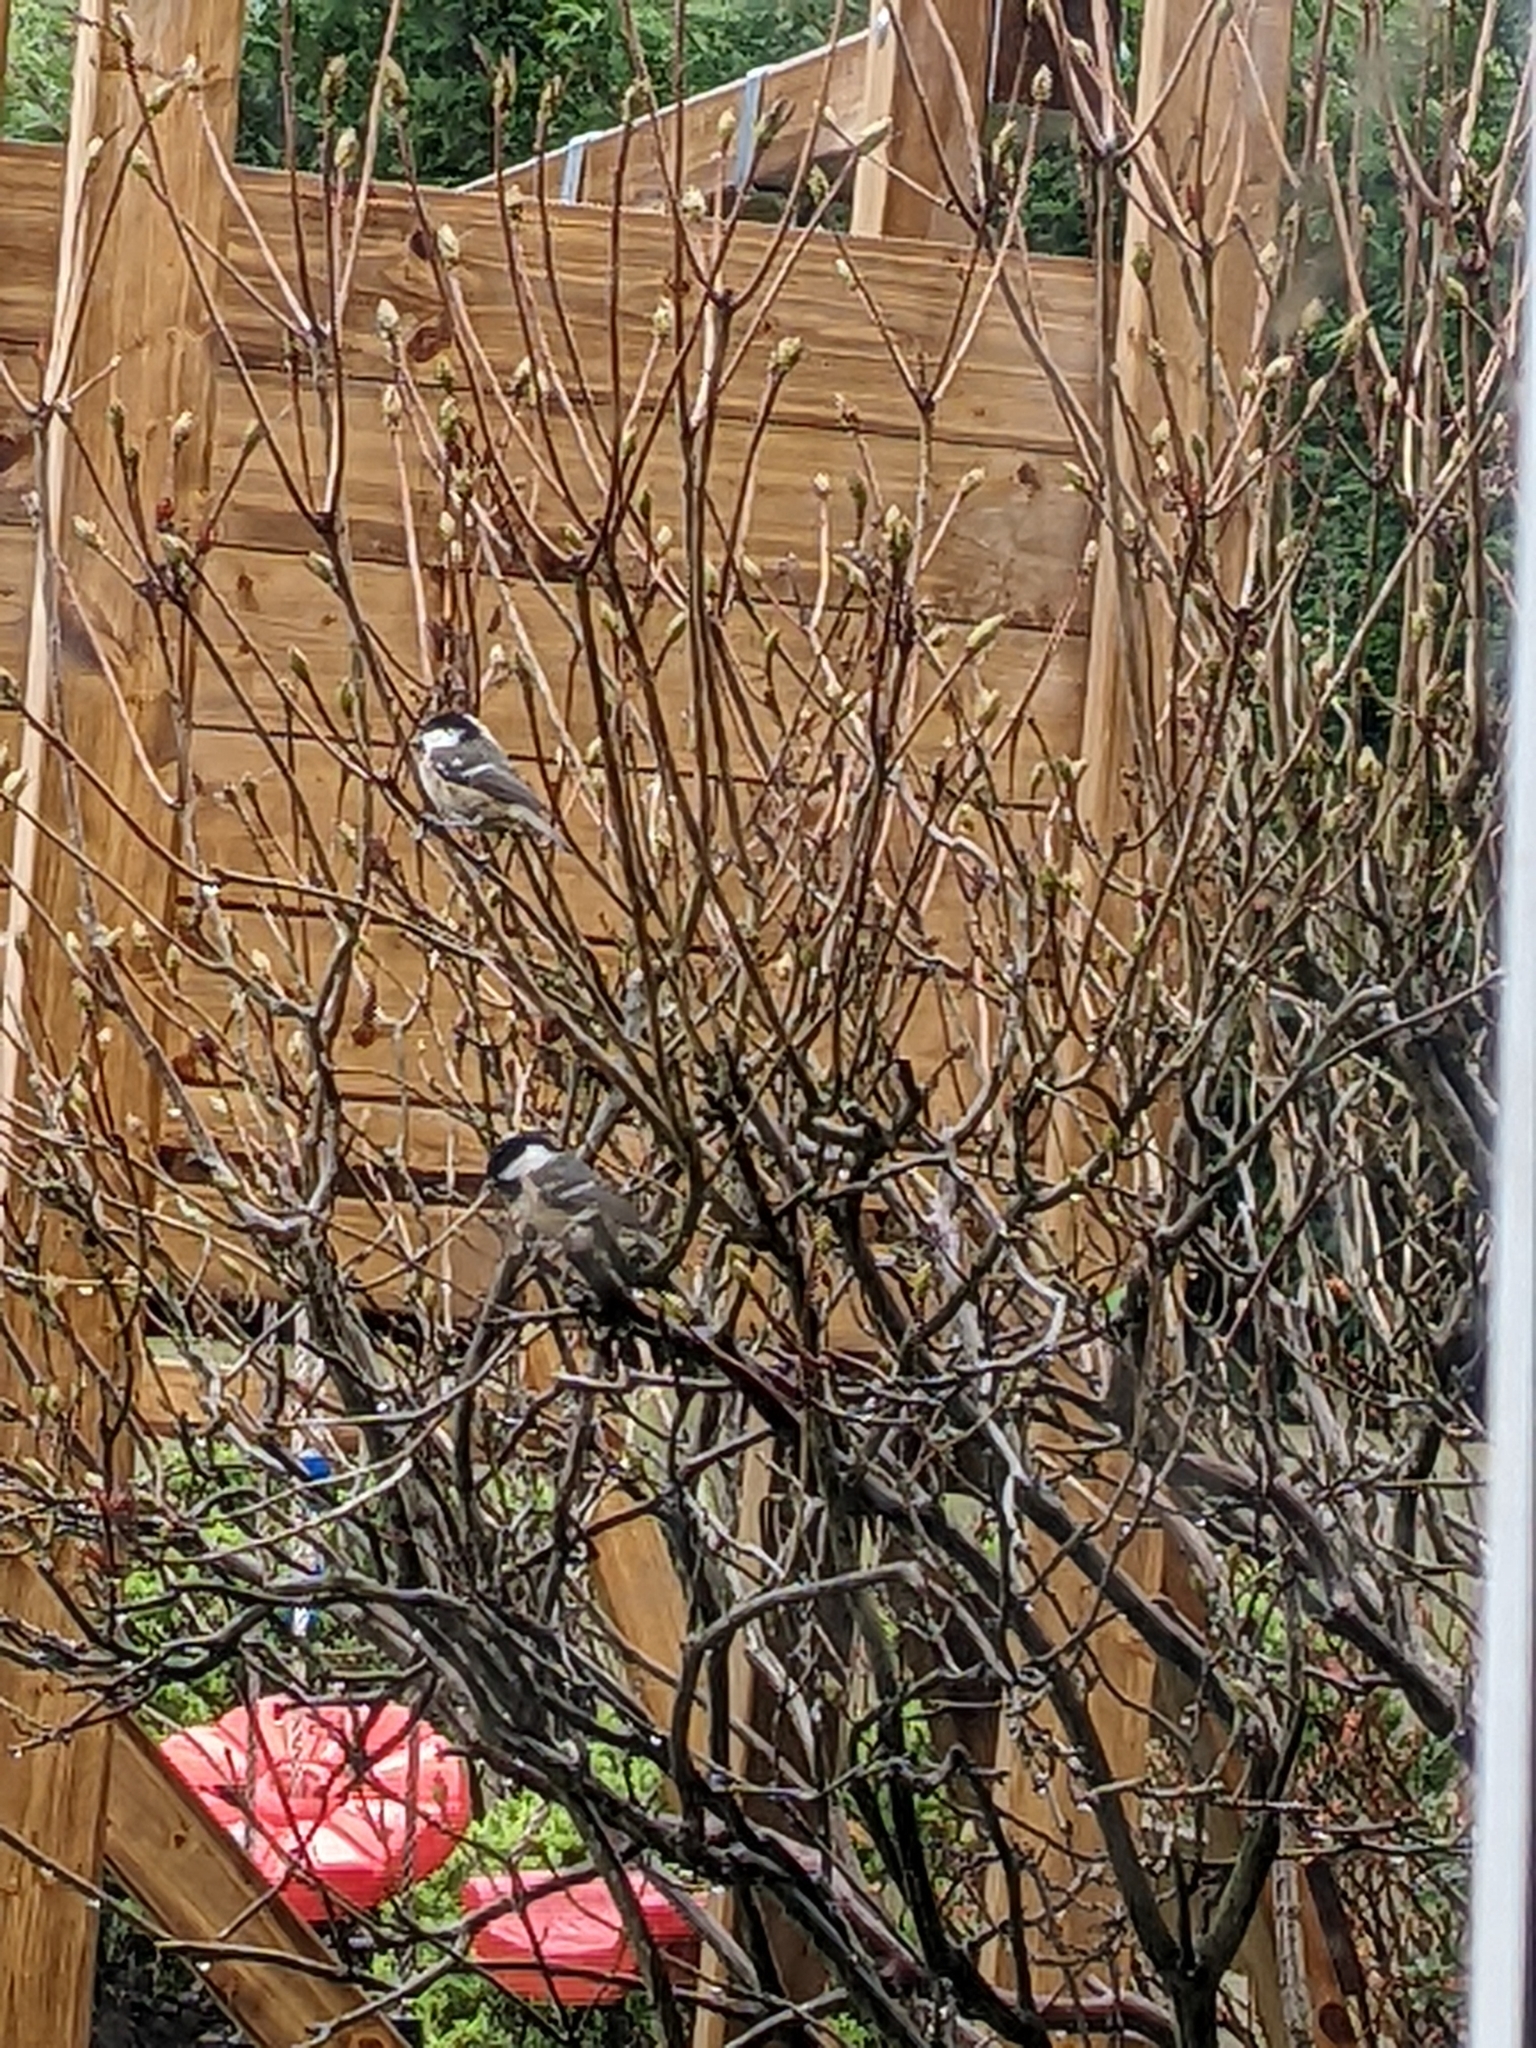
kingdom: Animalia
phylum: Chordata
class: Aves
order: Passeriformes
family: Paridae
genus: Periparus
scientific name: Periparus ater
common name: Coal tit
